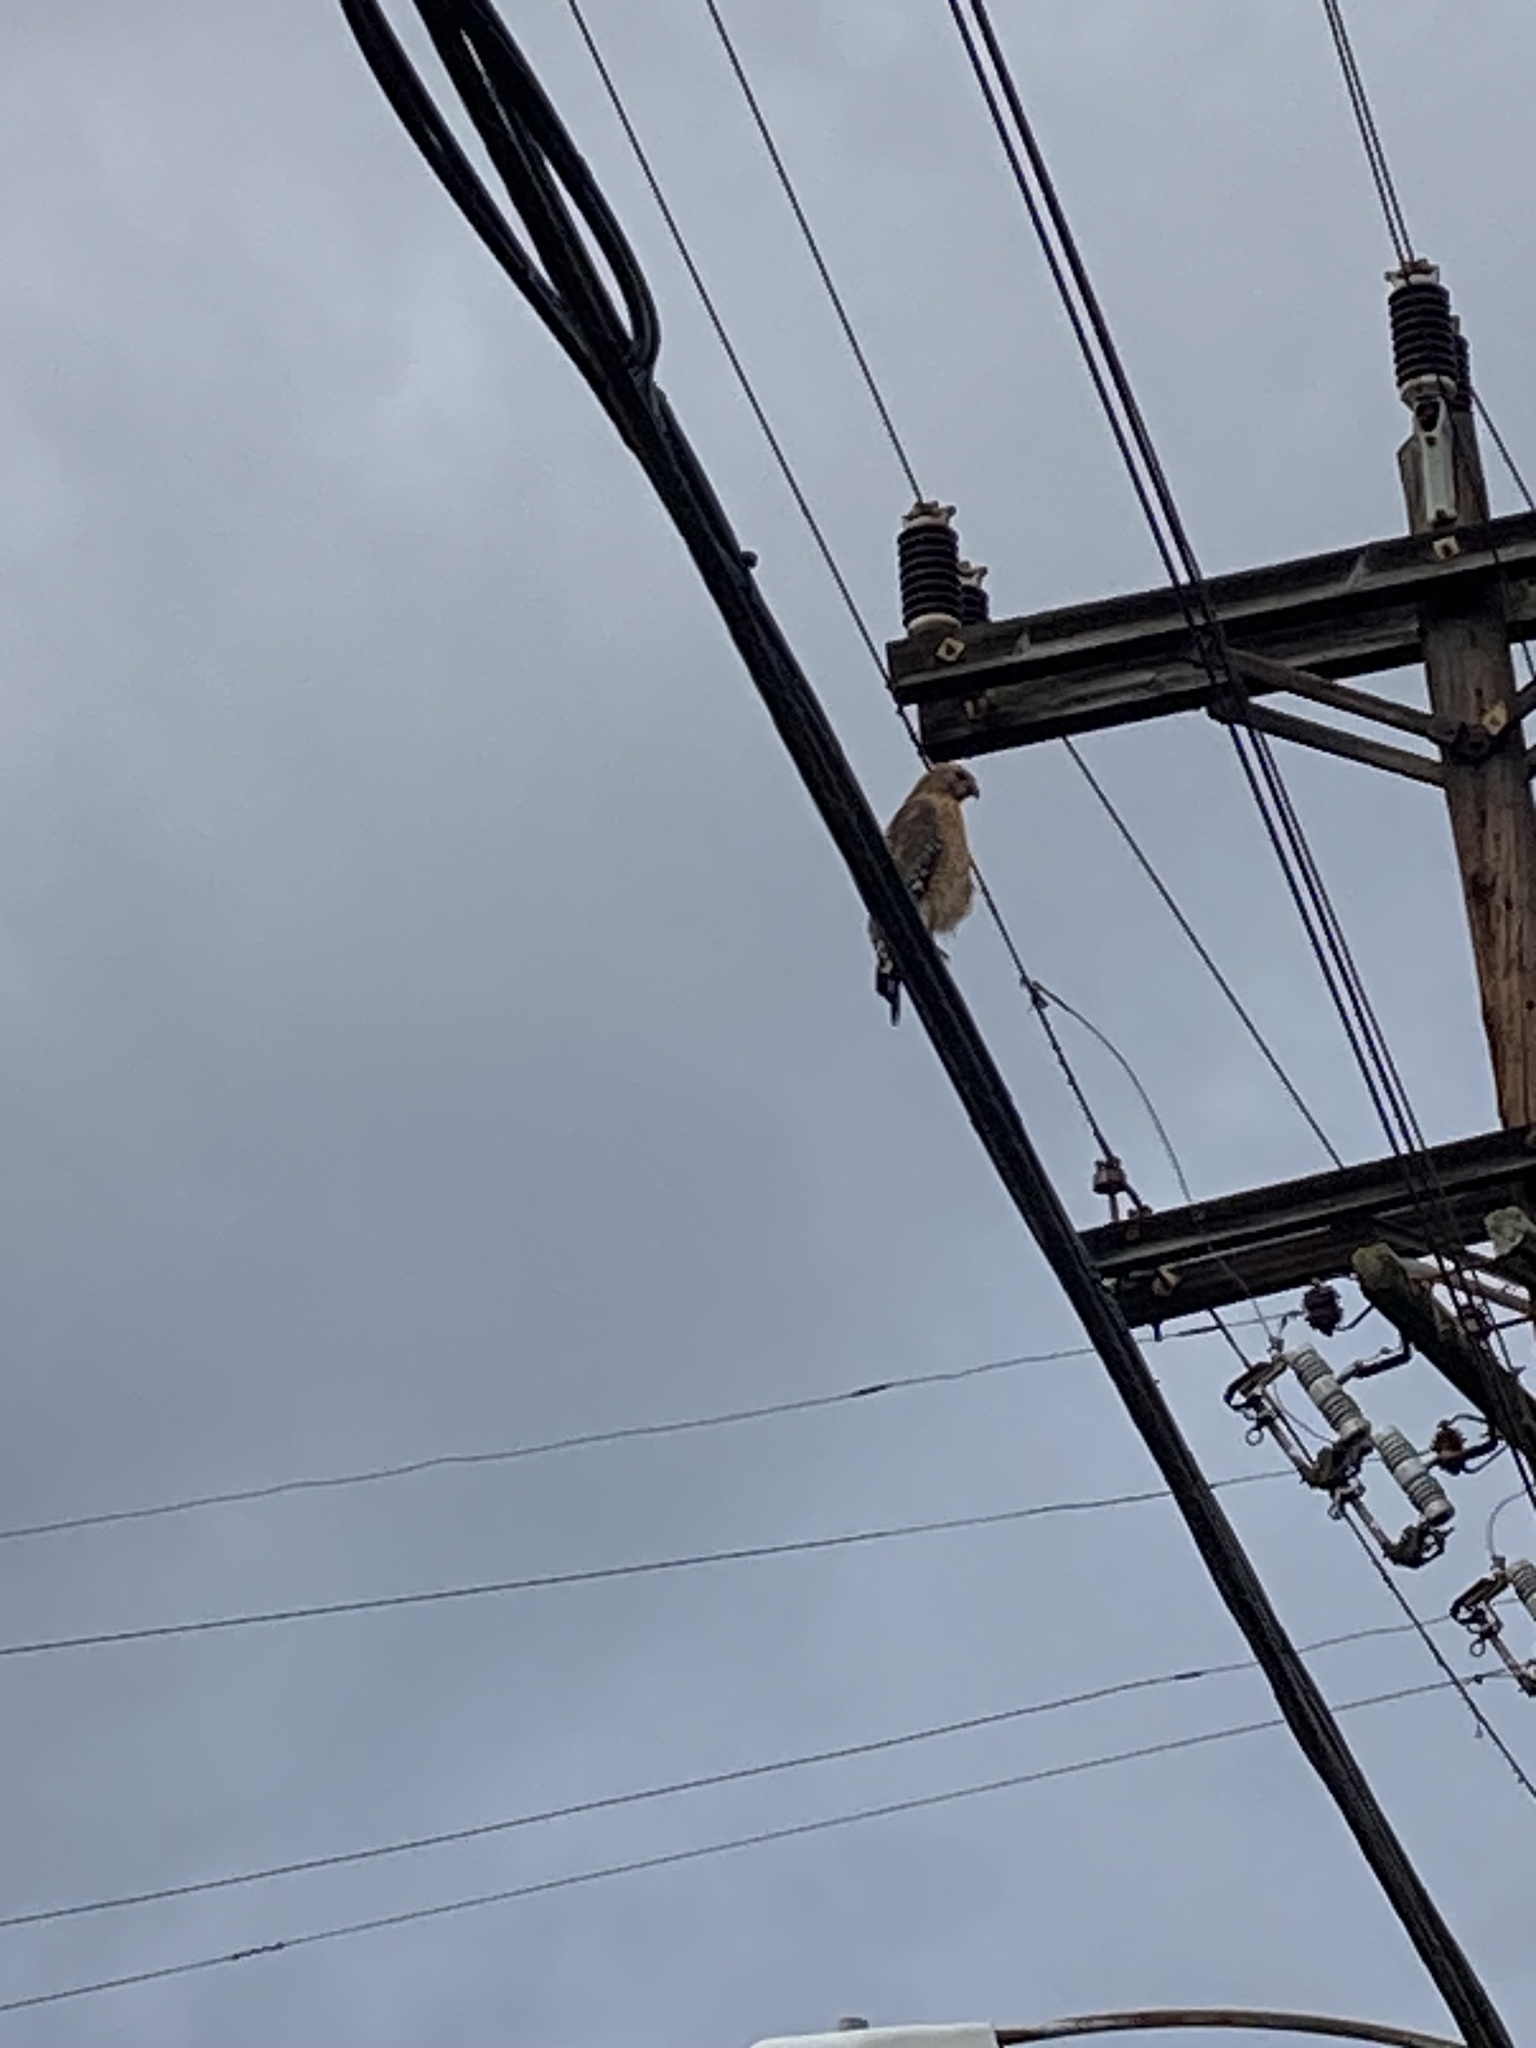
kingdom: Animalia
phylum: Chordata
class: Aves
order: Accipitriformes
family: Accipitridae
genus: Buteo
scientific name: Buteo lineatus
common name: Red-shouldered hawk
